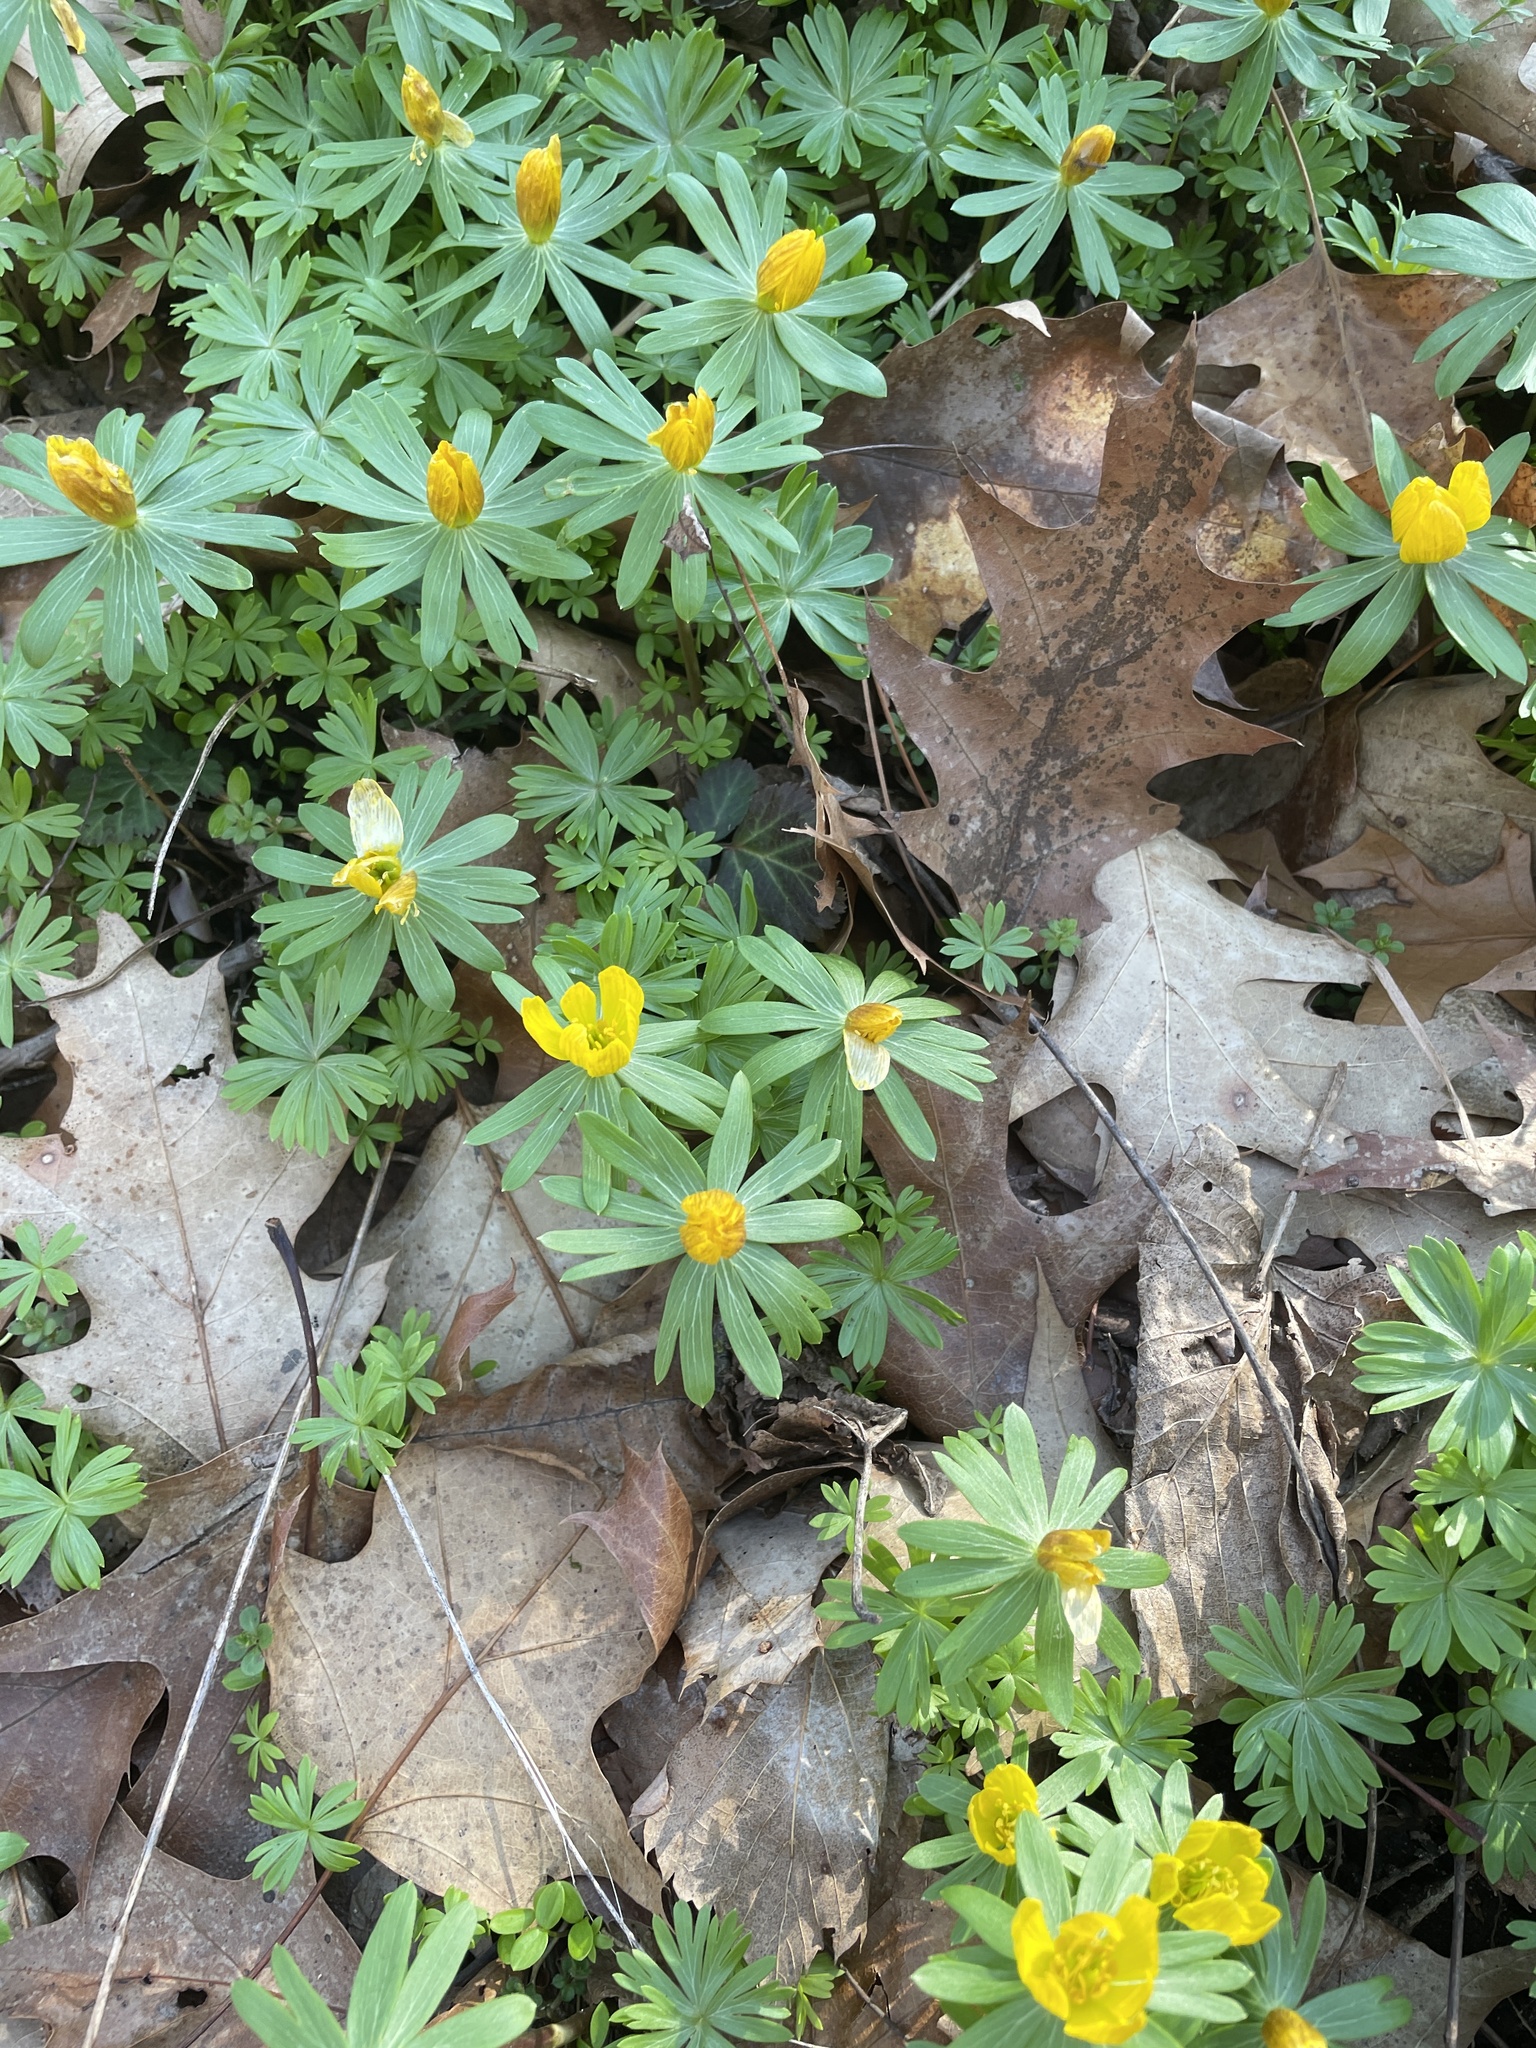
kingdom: Plantae
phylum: Tracheophyta
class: Magnoliopsida
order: Ranunculales
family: Ranunculaceae
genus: Eranthis
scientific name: Eranthis hyemalis
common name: Winter aconite
